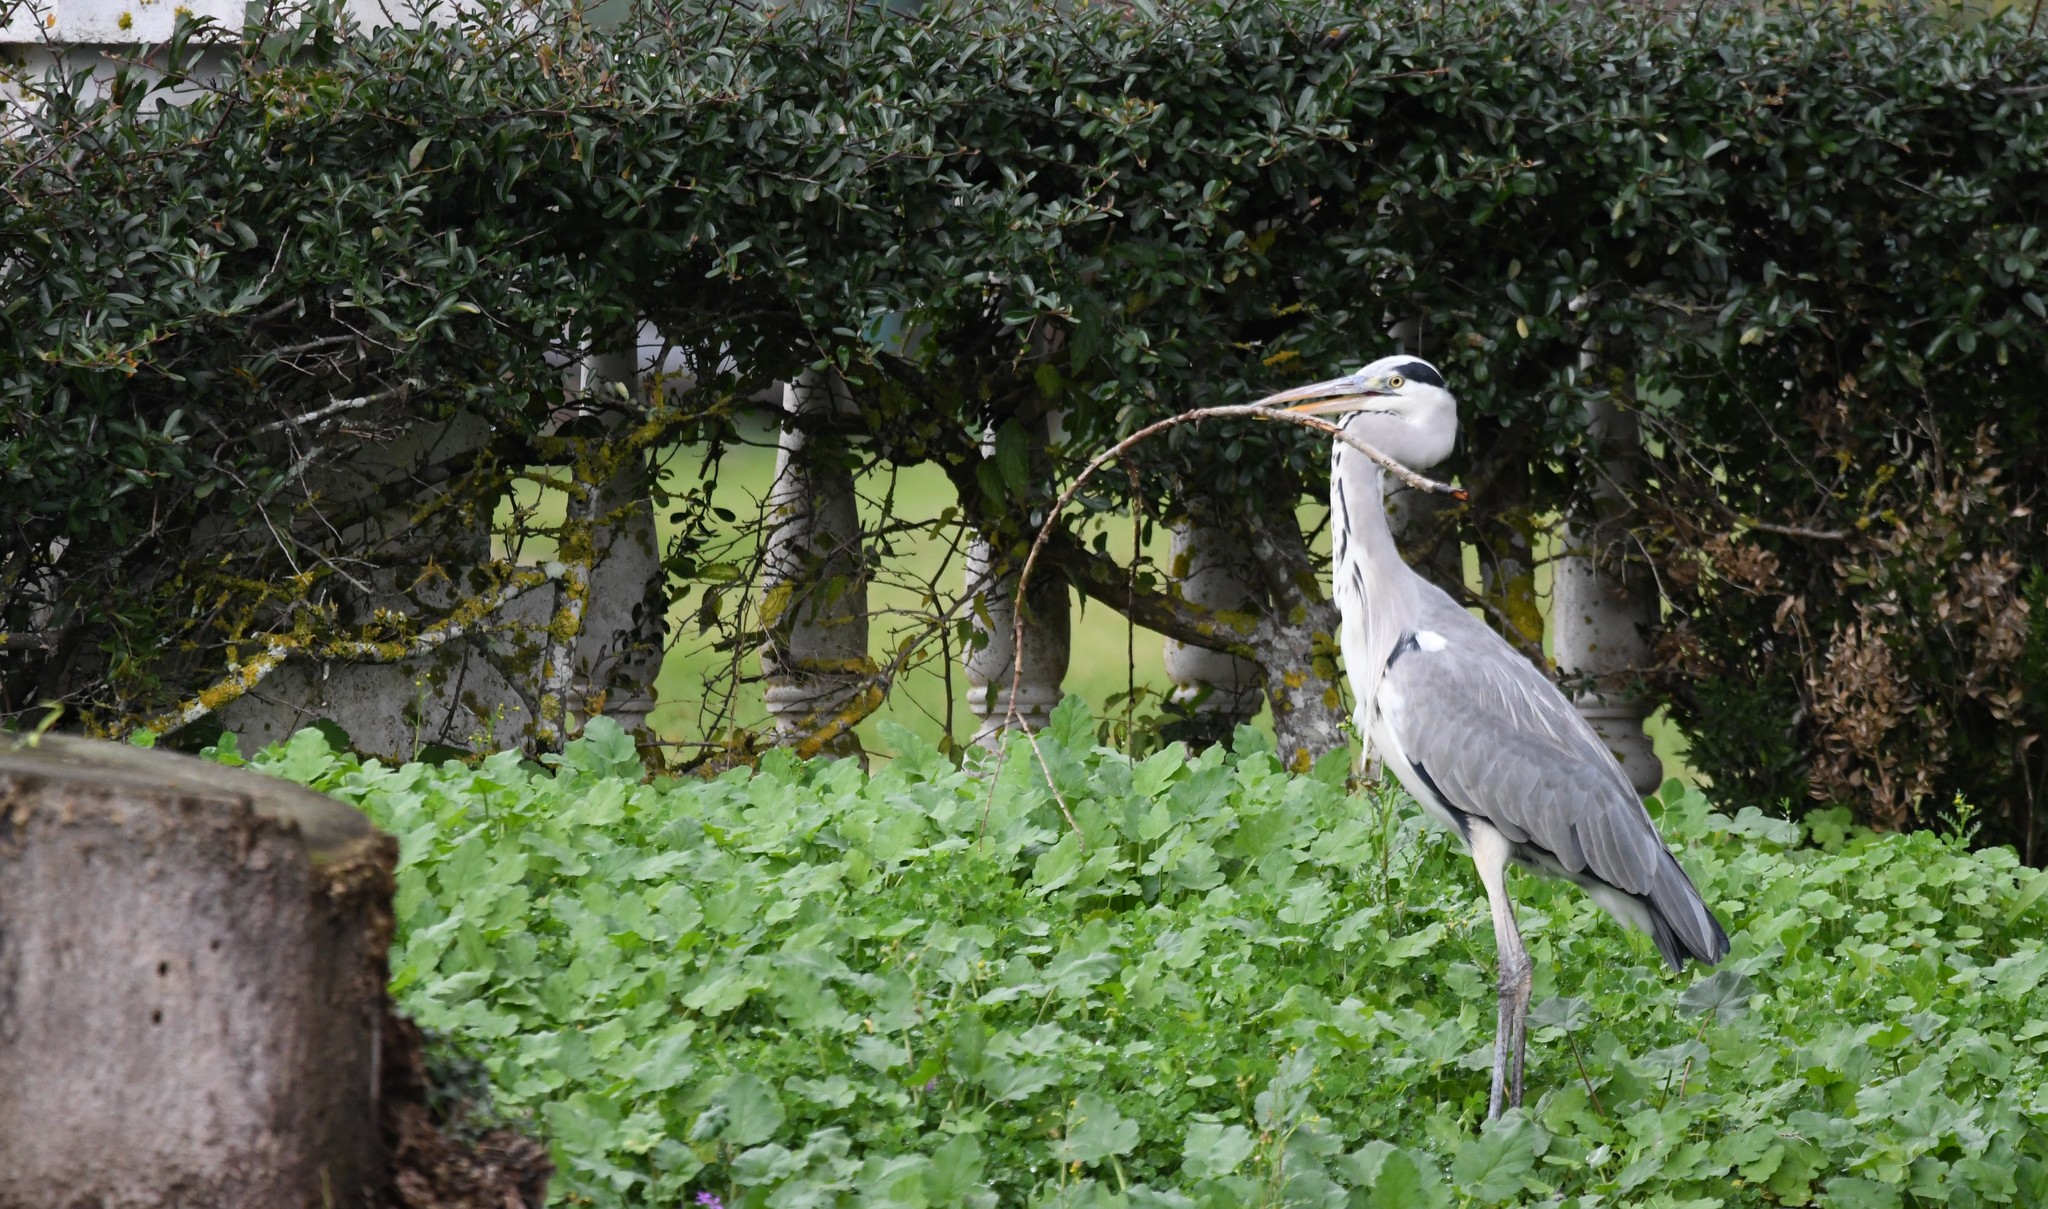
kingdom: Animalia
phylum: Chordata
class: Aves
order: Pelecaniformes
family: Ardeidae
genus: Ardea
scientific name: Ardea cinerea
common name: Grey heron
